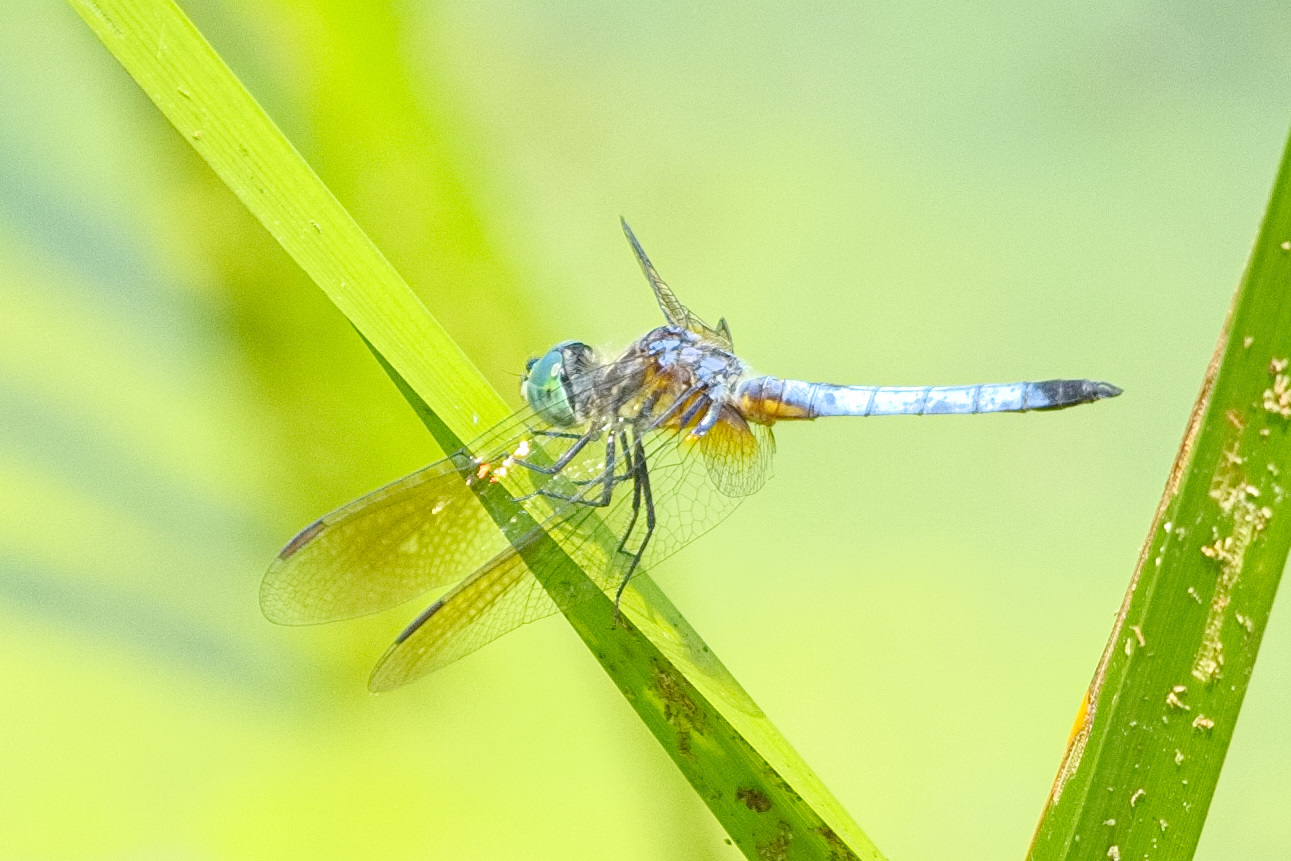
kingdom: Animalia
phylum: Arthropoda
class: Insecta
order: Odonata
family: Libellulidae
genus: Pachydiplax
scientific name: Pachydiplax longipennis
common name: Blue dasher
